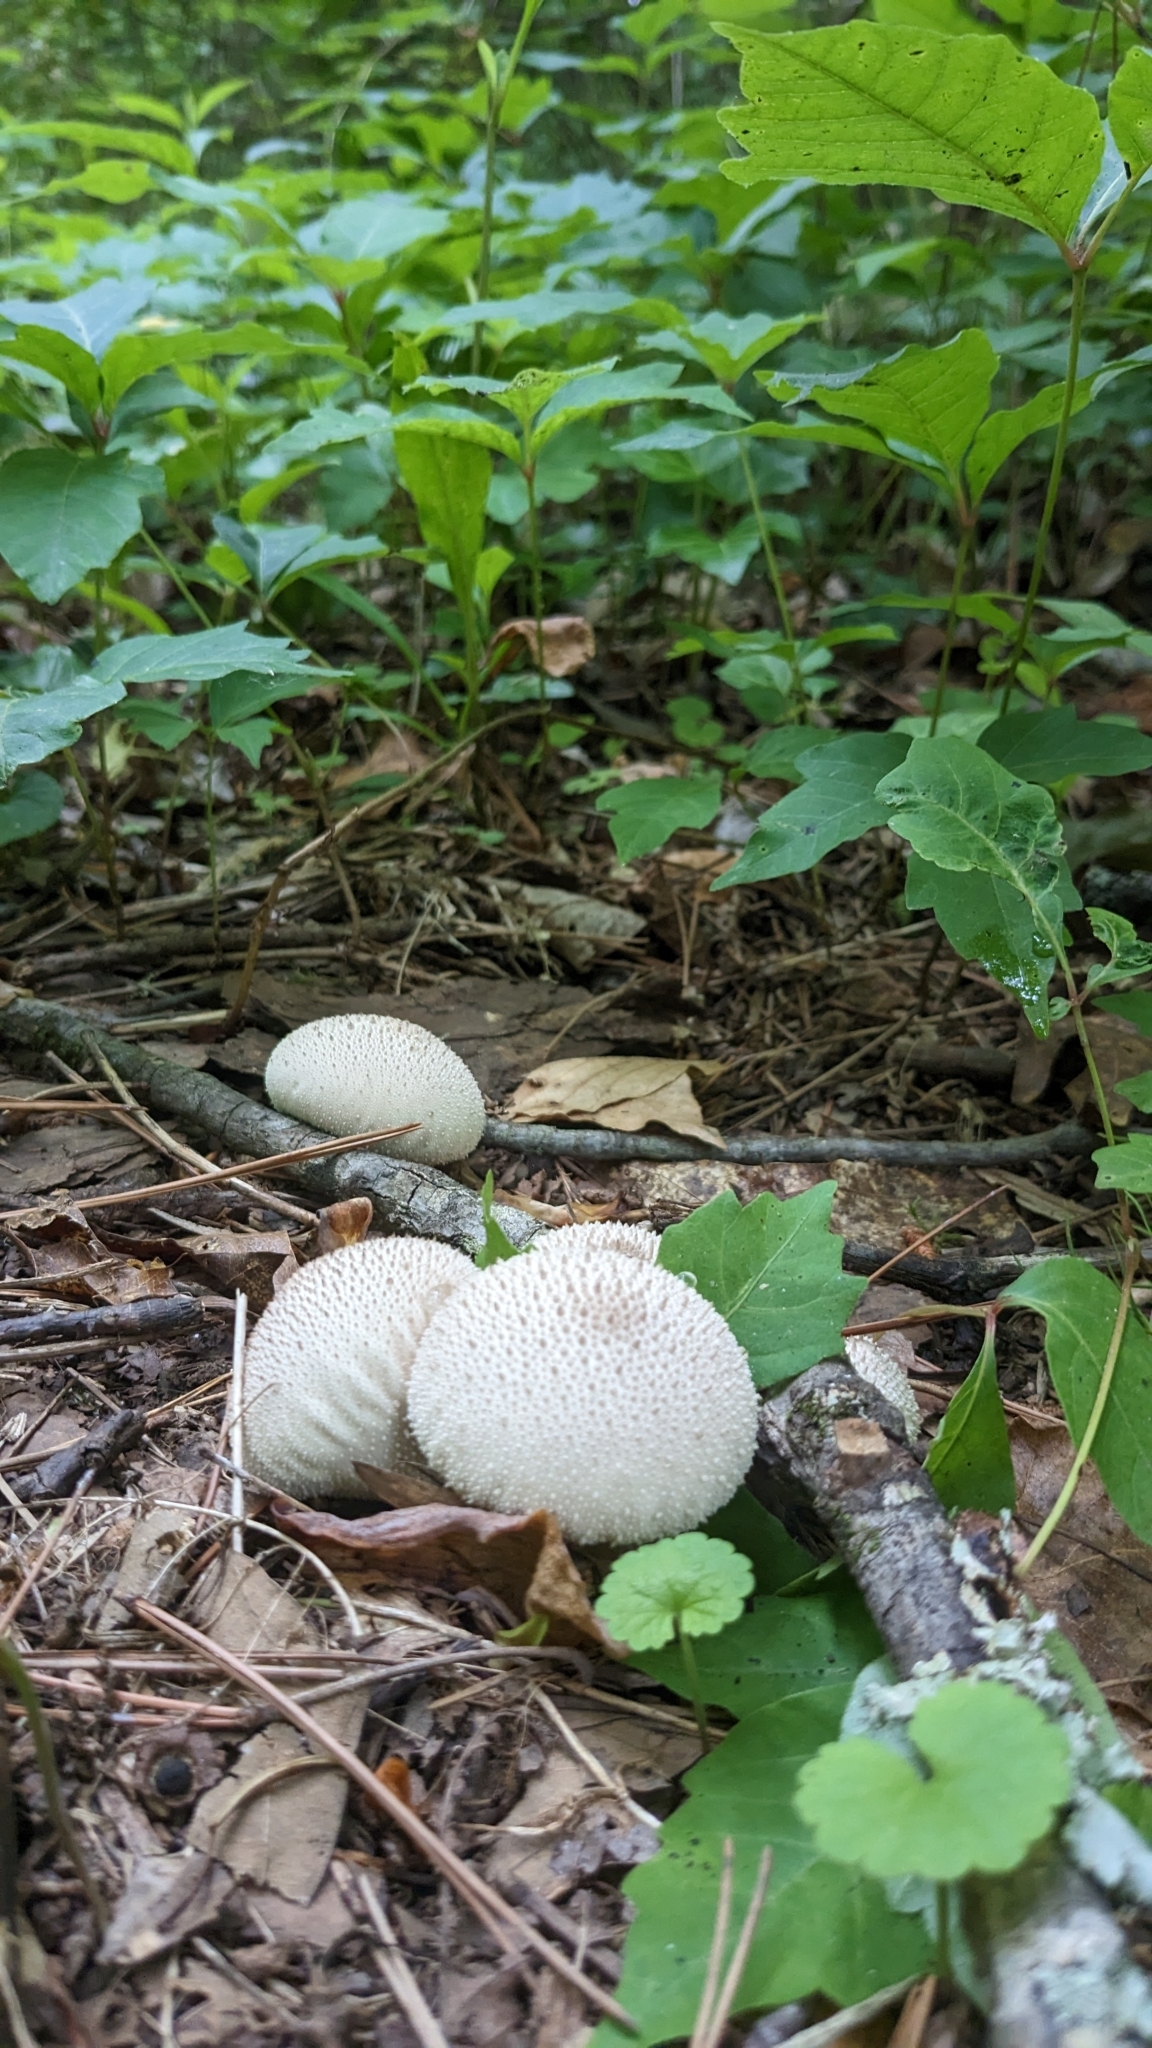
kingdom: Fungi
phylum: Basidiomycota
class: Agaricomycetes
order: Agaricales
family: Lycoperdaceae
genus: Lycoperdon
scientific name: Lycoperdon perlatum
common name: Common puffball
